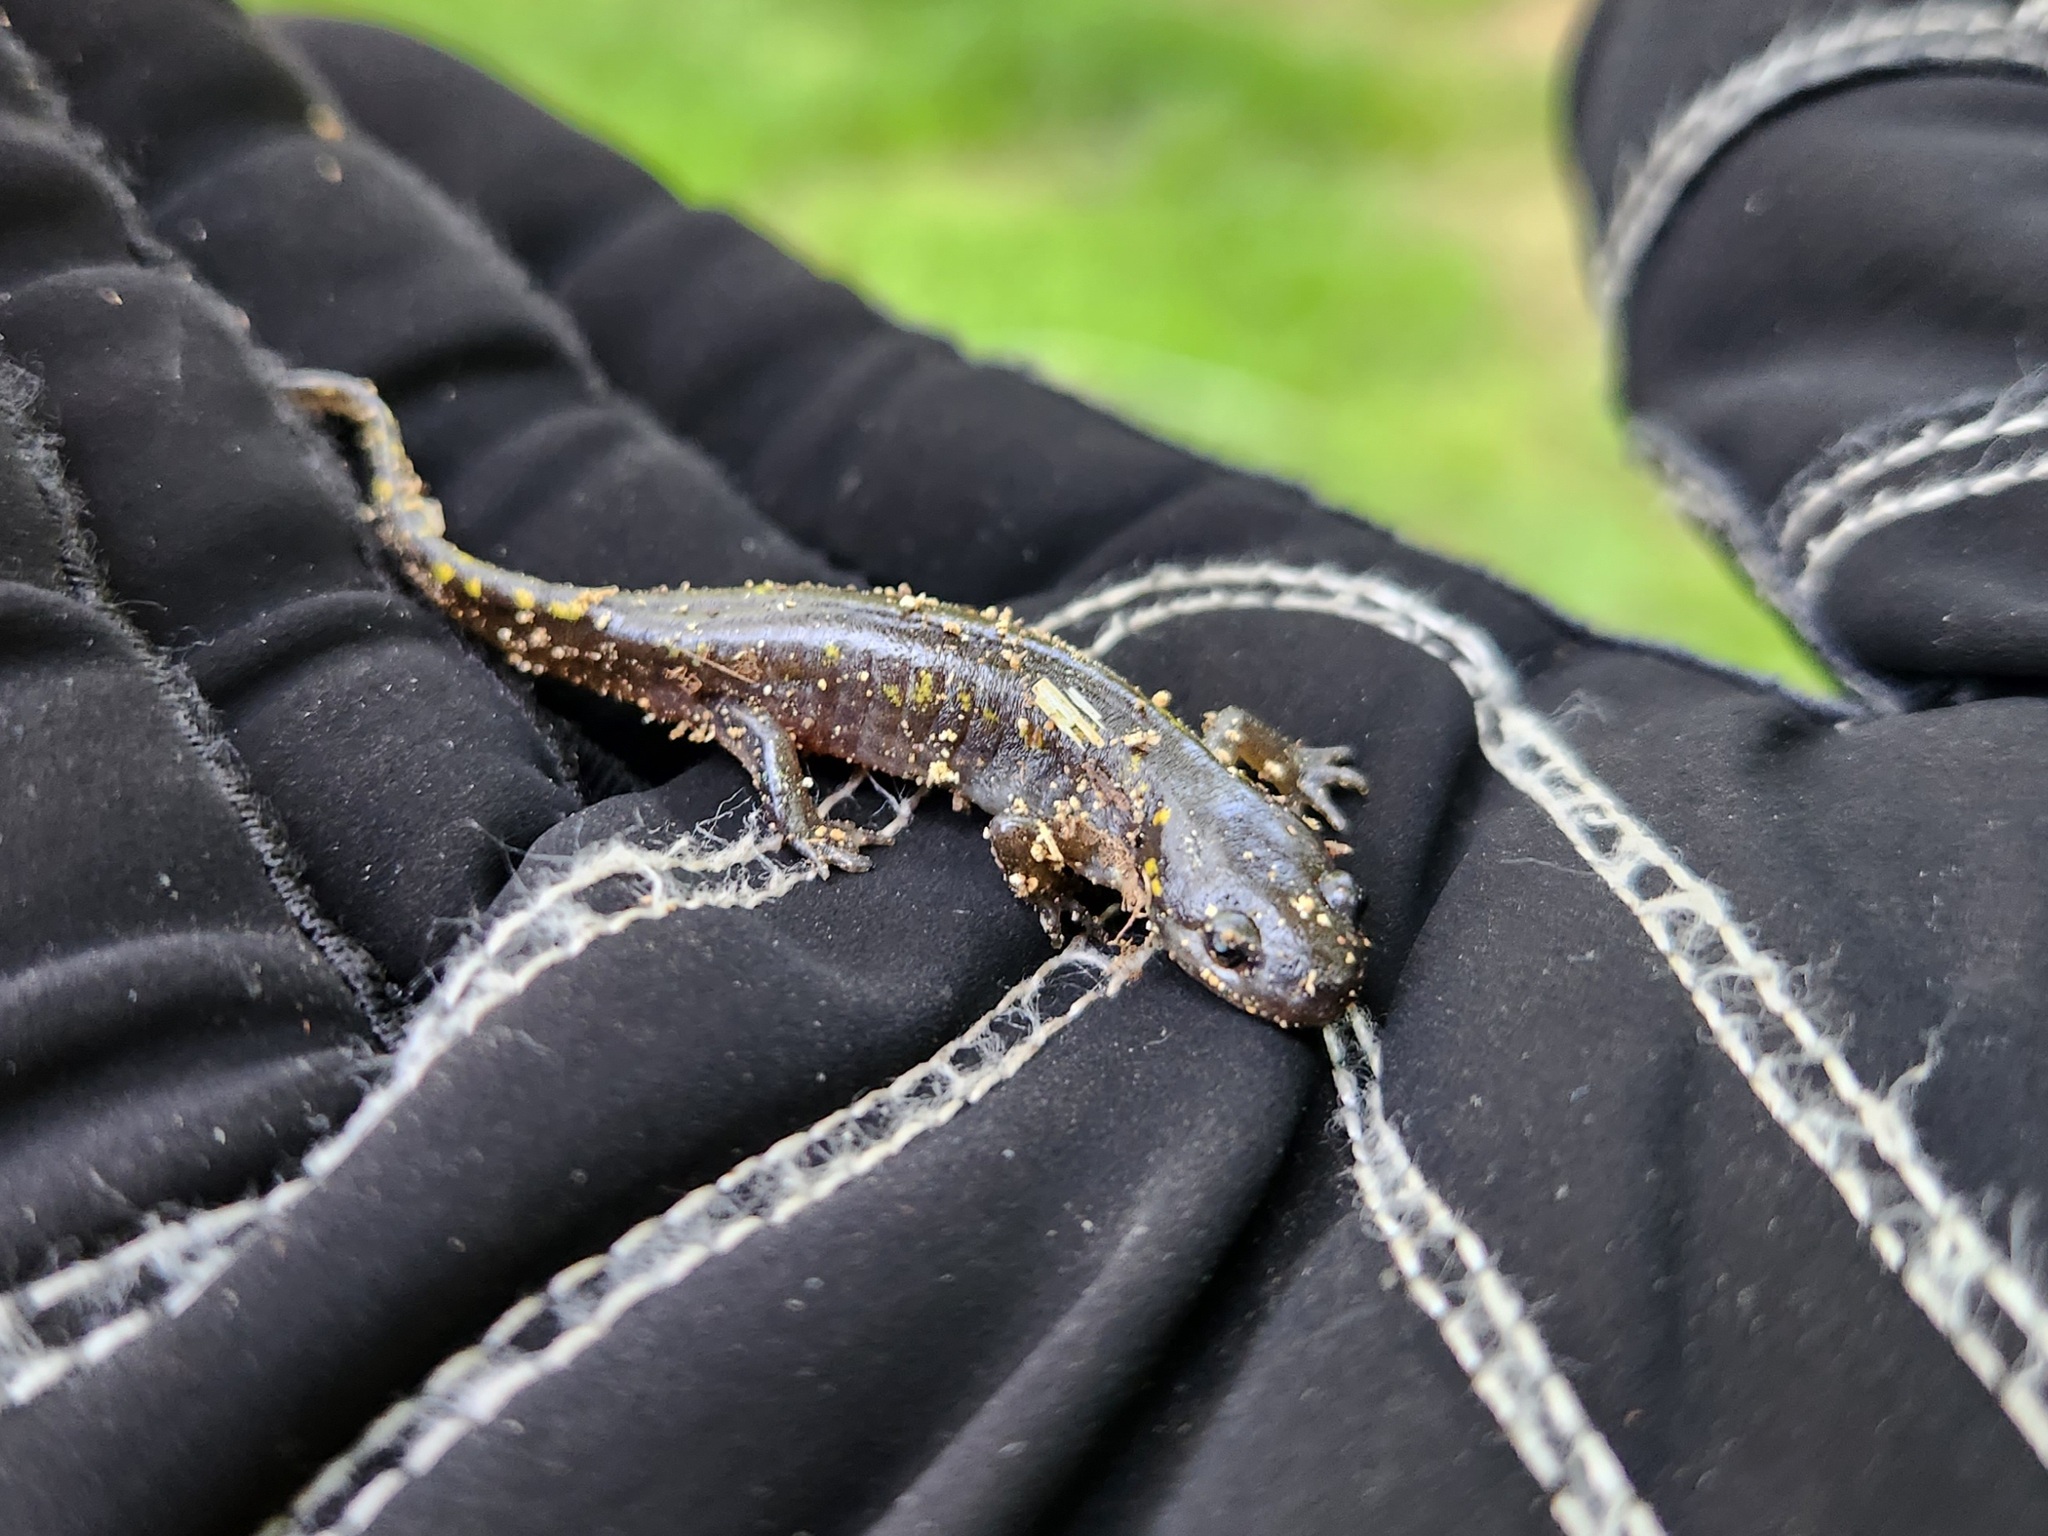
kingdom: Animalia
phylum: Chordata
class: Amphibia
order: Caudata
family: Ambystomatidae
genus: Ambystoma
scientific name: Ambystoma maculatum
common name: Spotted salamander
